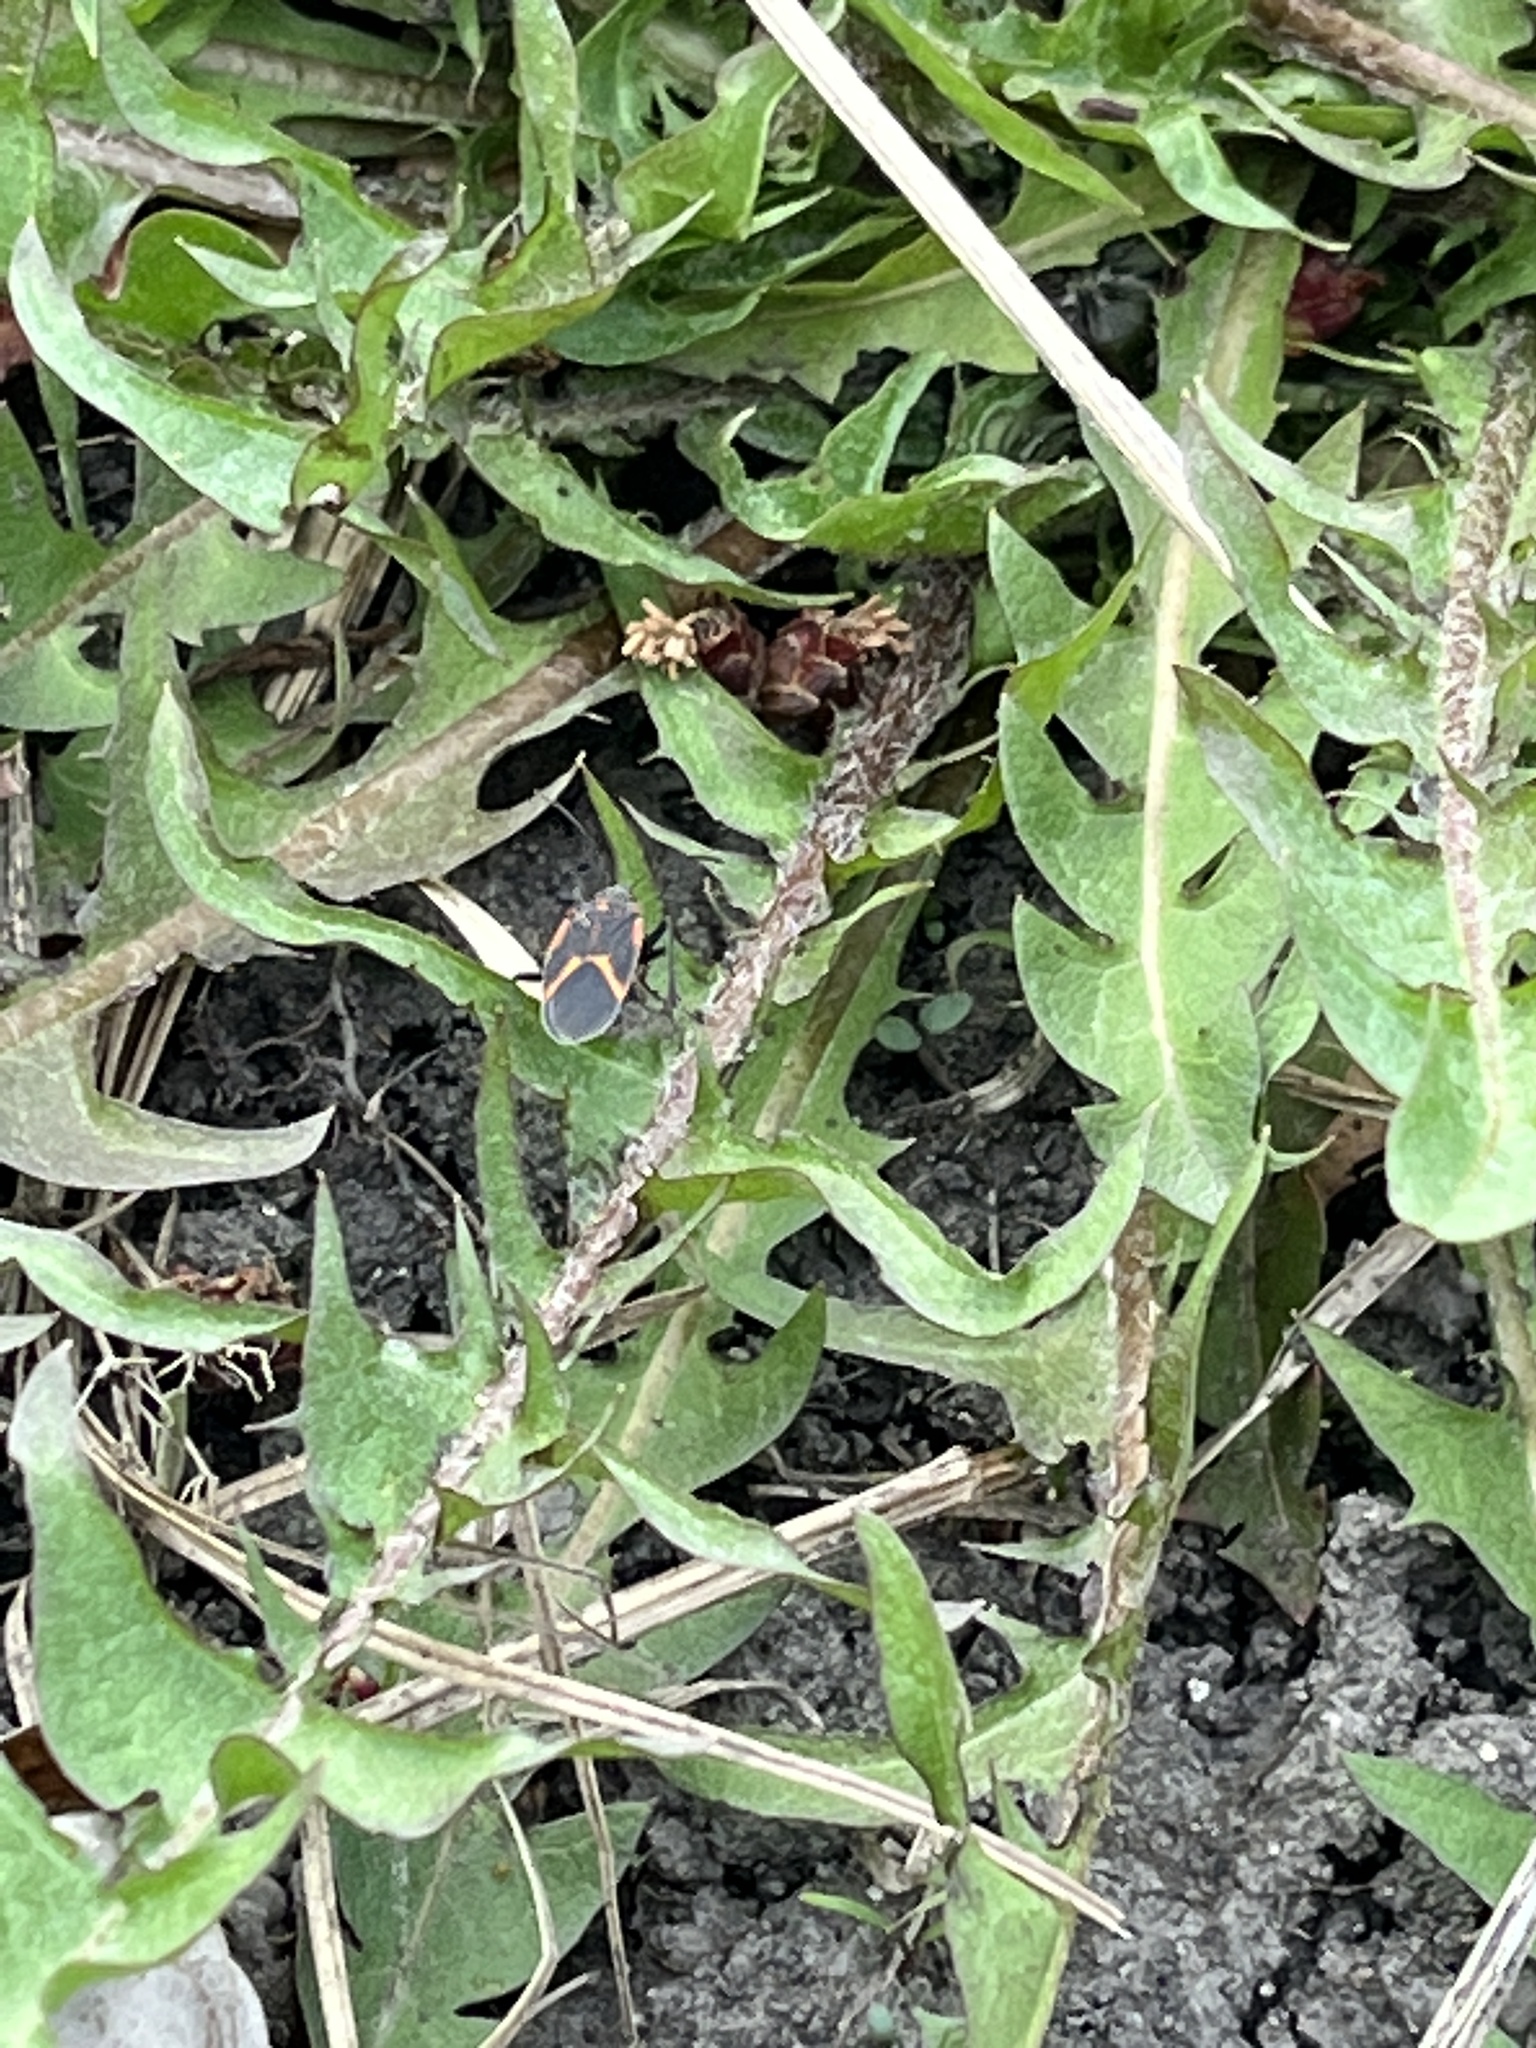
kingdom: Animalia
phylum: Arthropoda
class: Insecta
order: Hemiptera
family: Rhopalidae
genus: Boisea
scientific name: Boisea trivittata
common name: Boxelder bug
